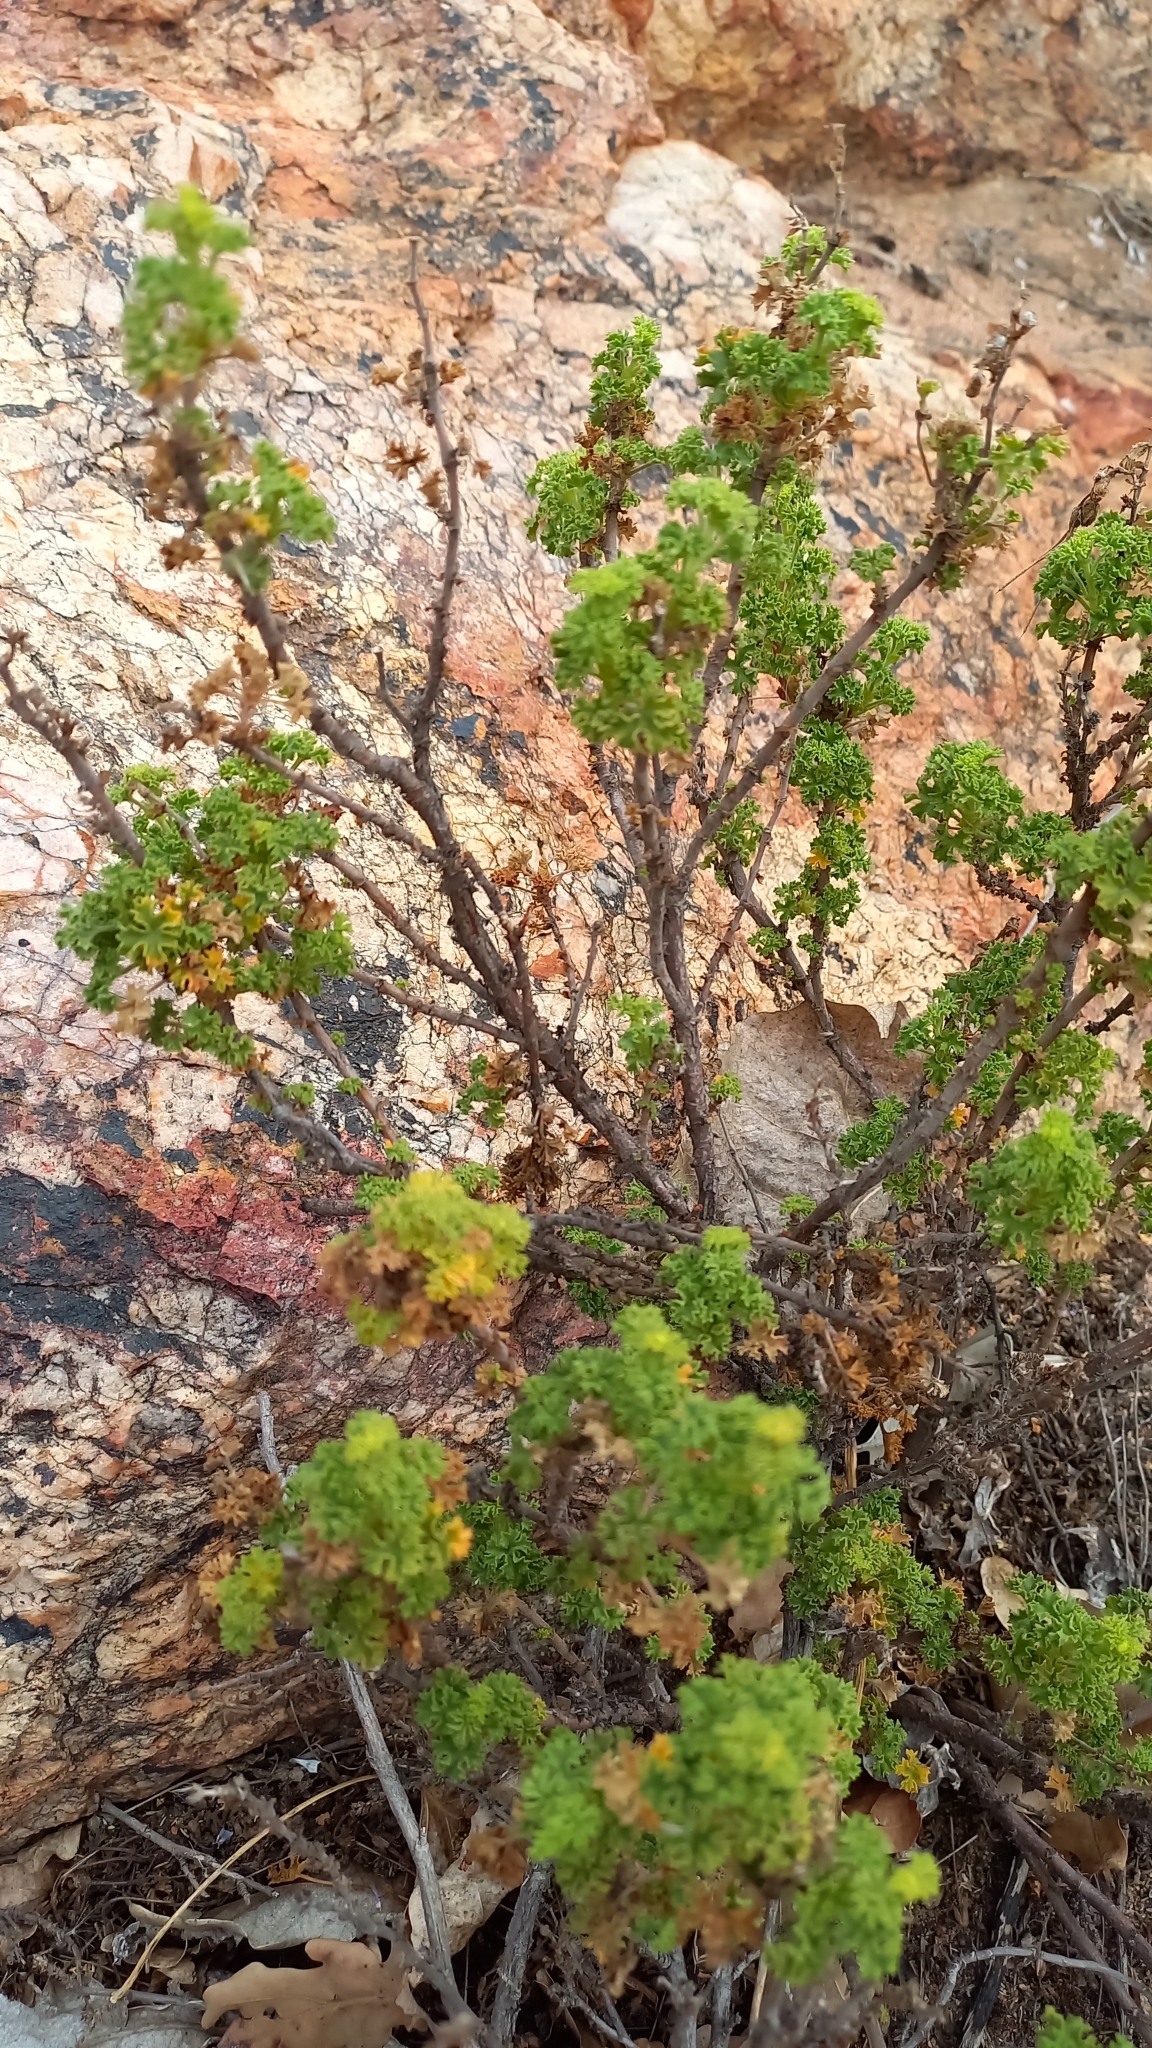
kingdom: Plantae
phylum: Tracheophyta
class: Magnoliopsida
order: Geraniales
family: Geraniaceae
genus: Pelargonium
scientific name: Pelargonium crispum
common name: Crisped-leaf pelargonium
